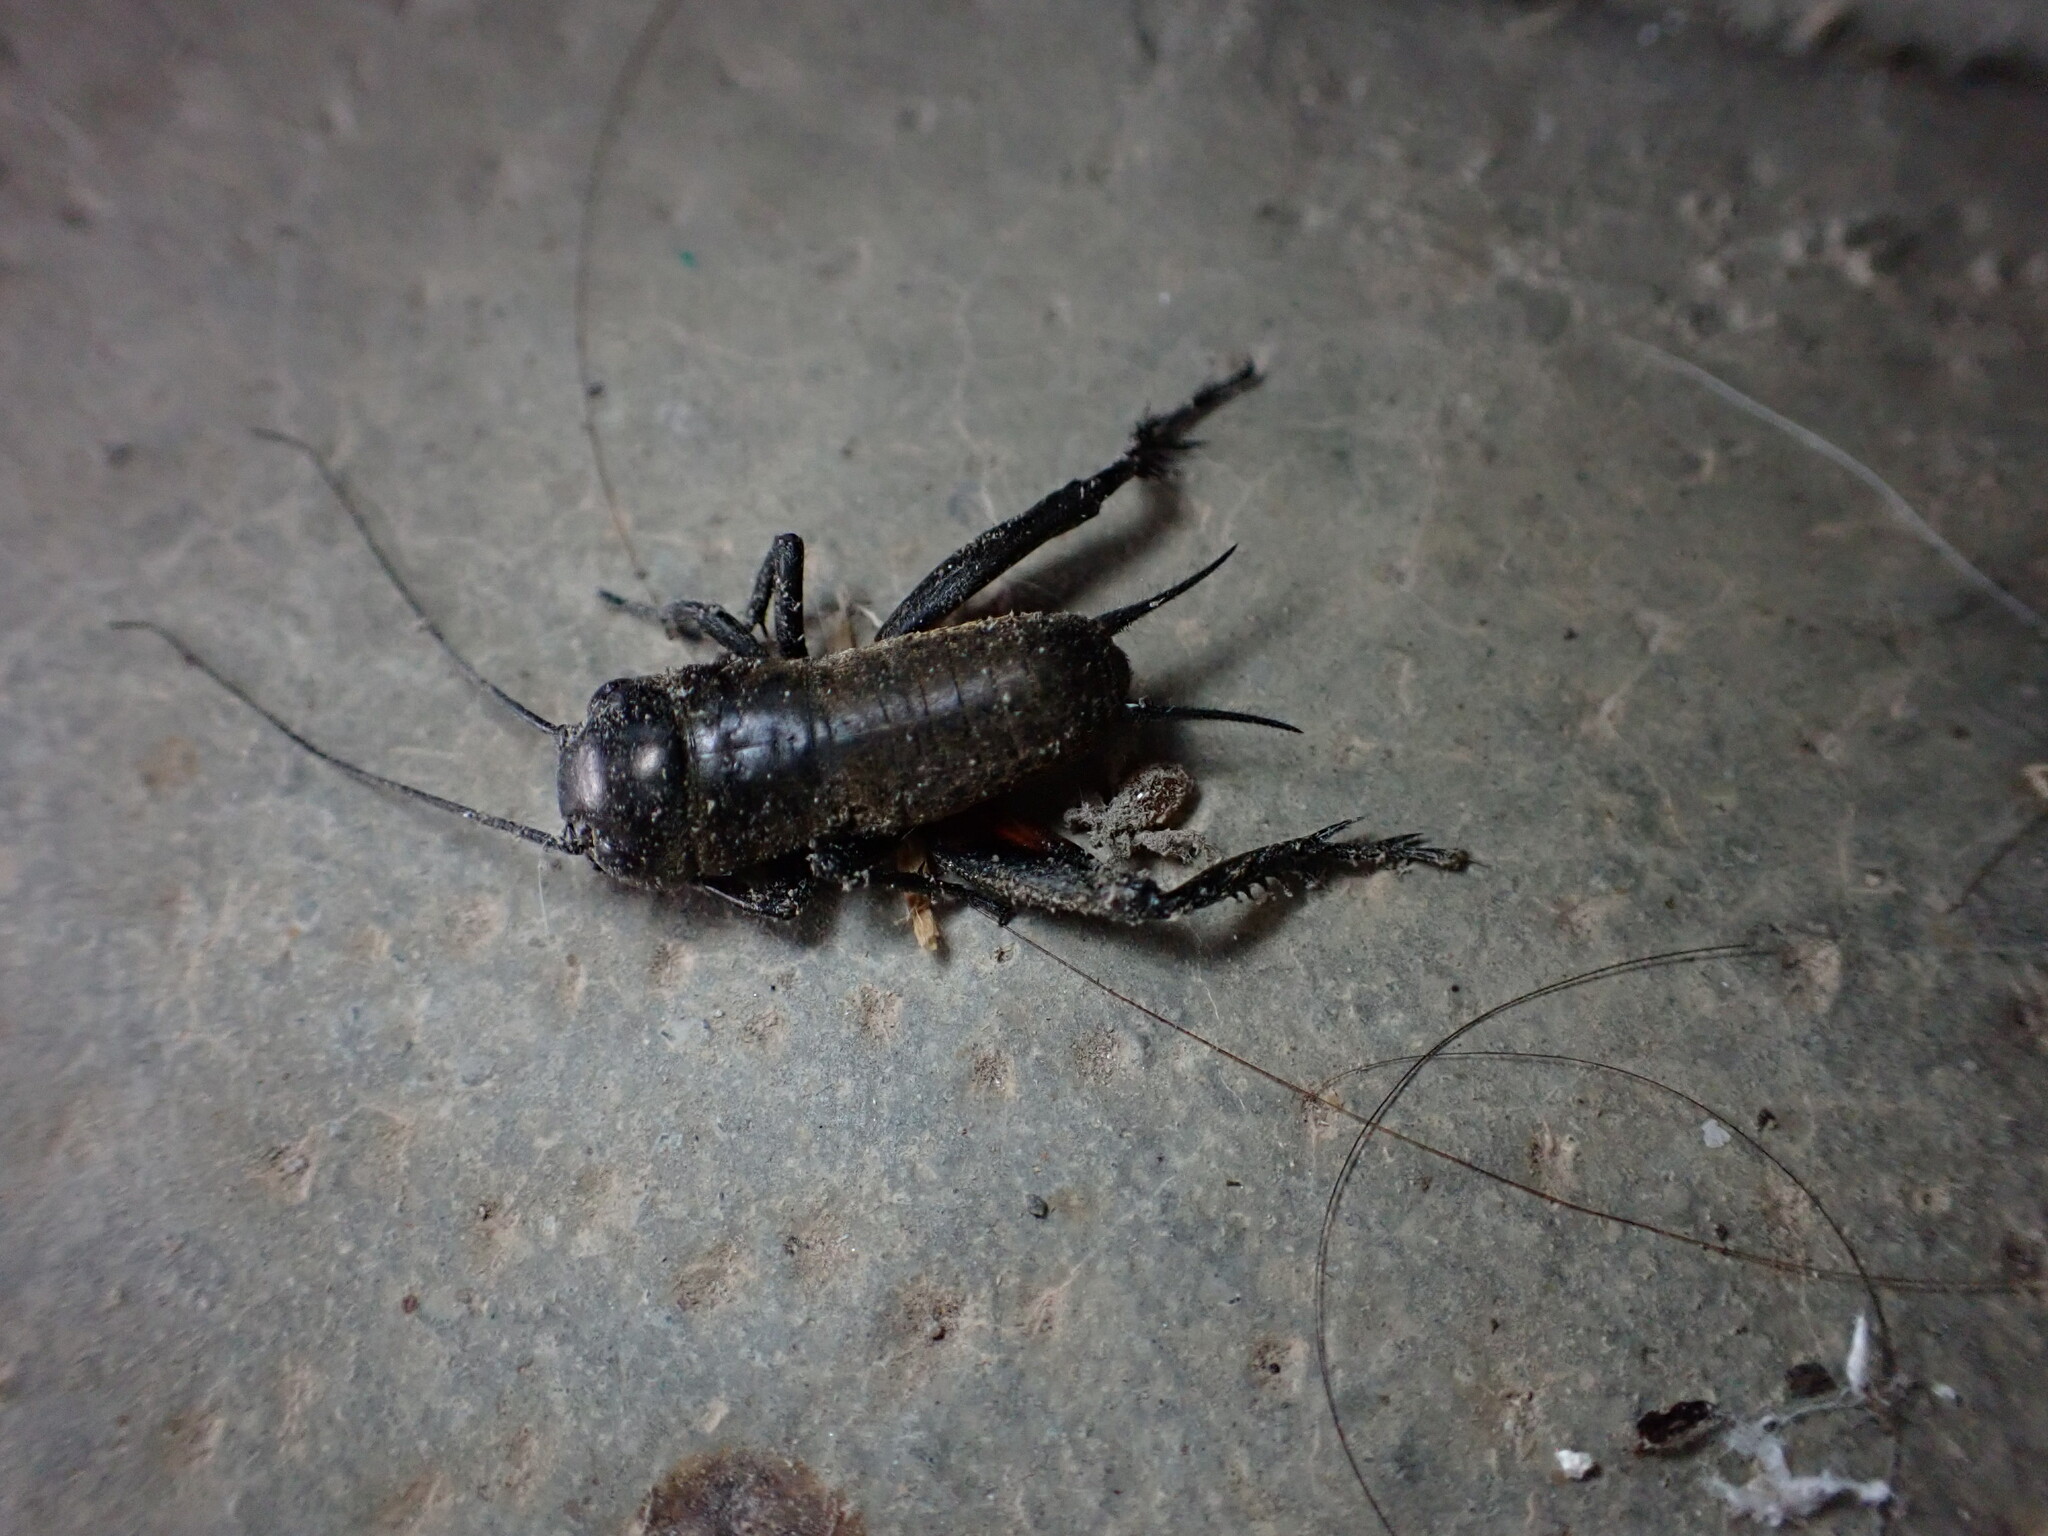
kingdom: Animalia
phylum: Arthropoda
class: Insecta
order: Orthoptera
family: Gryllidae
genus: Gryllus
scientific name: Gryllus campestris
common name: Field cricket
